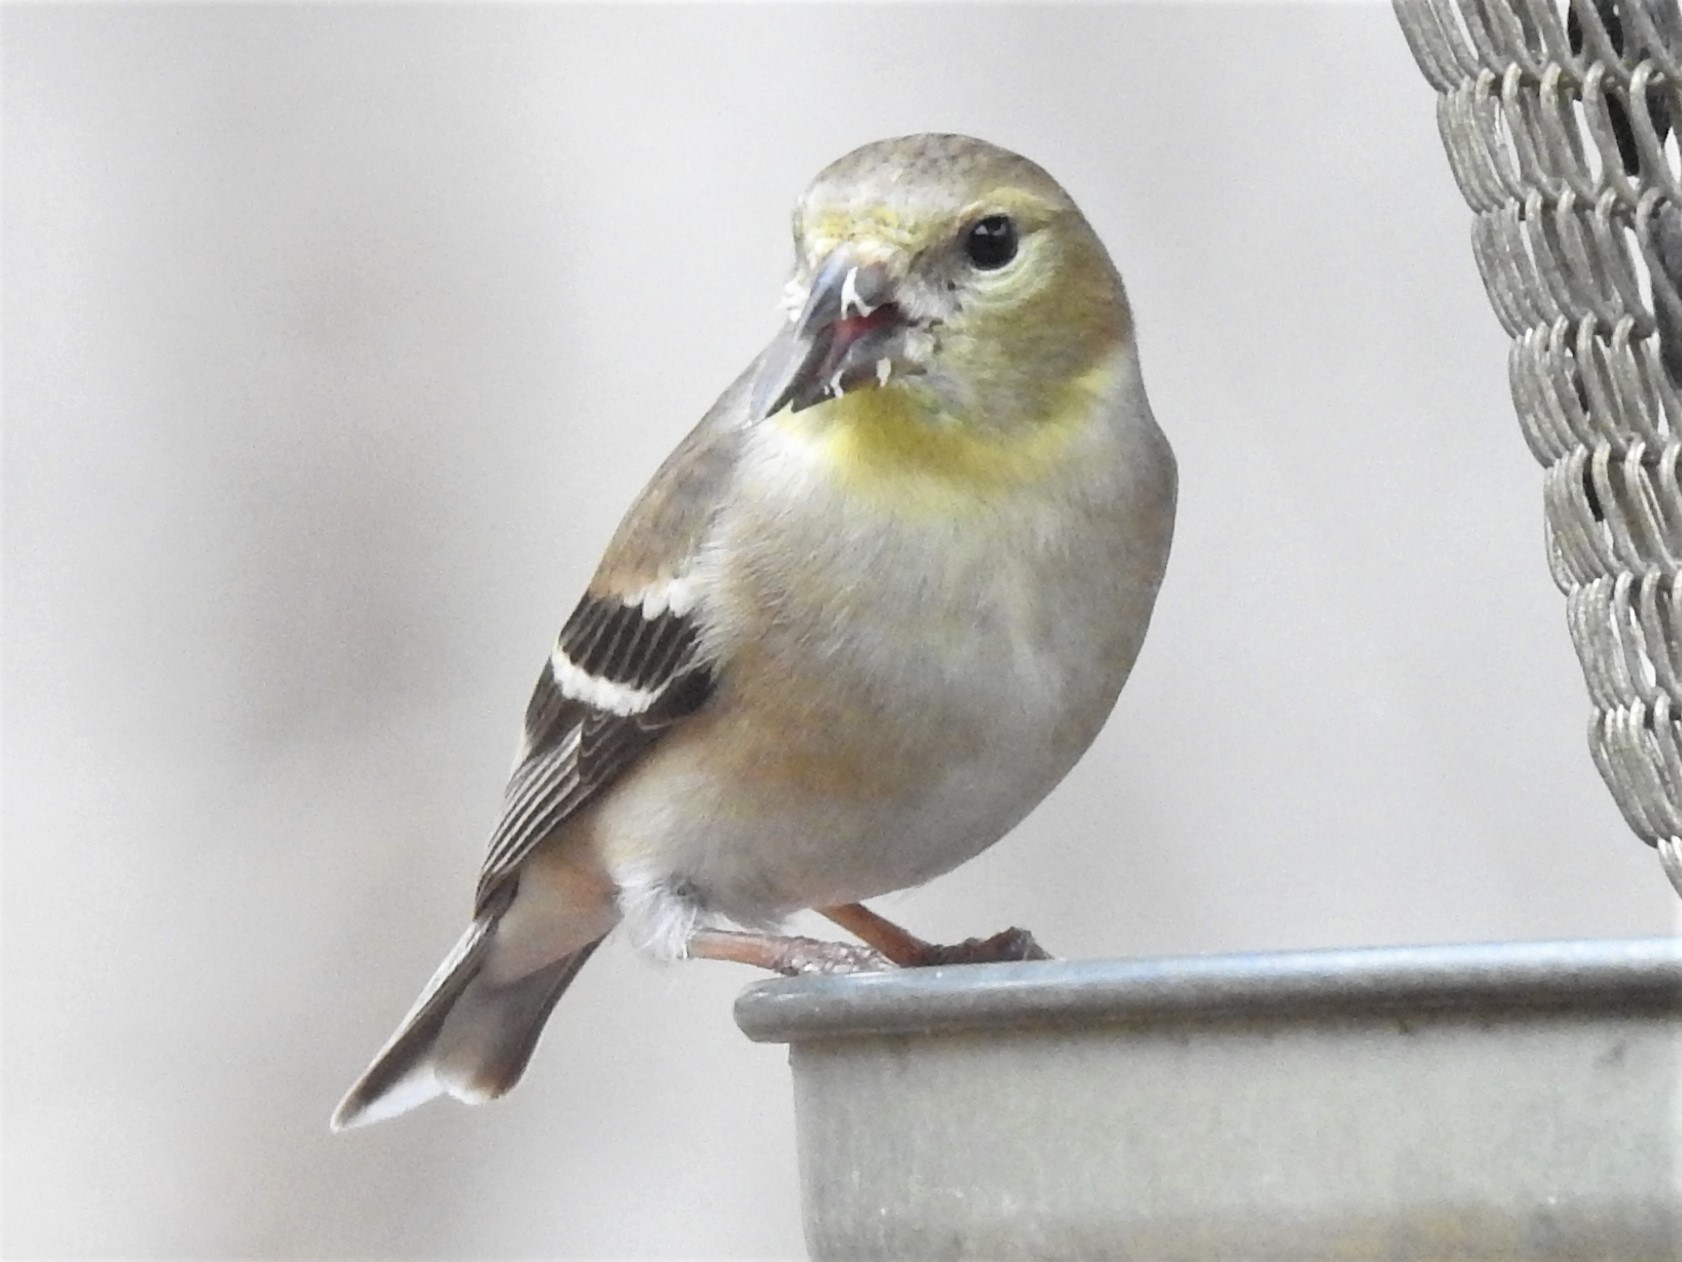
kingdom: Animalia
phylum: Chordata
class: Aves
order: Passeriformes
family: Fringillidae
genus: Spinus
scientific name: Spinus tristis
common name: American goldfinch
